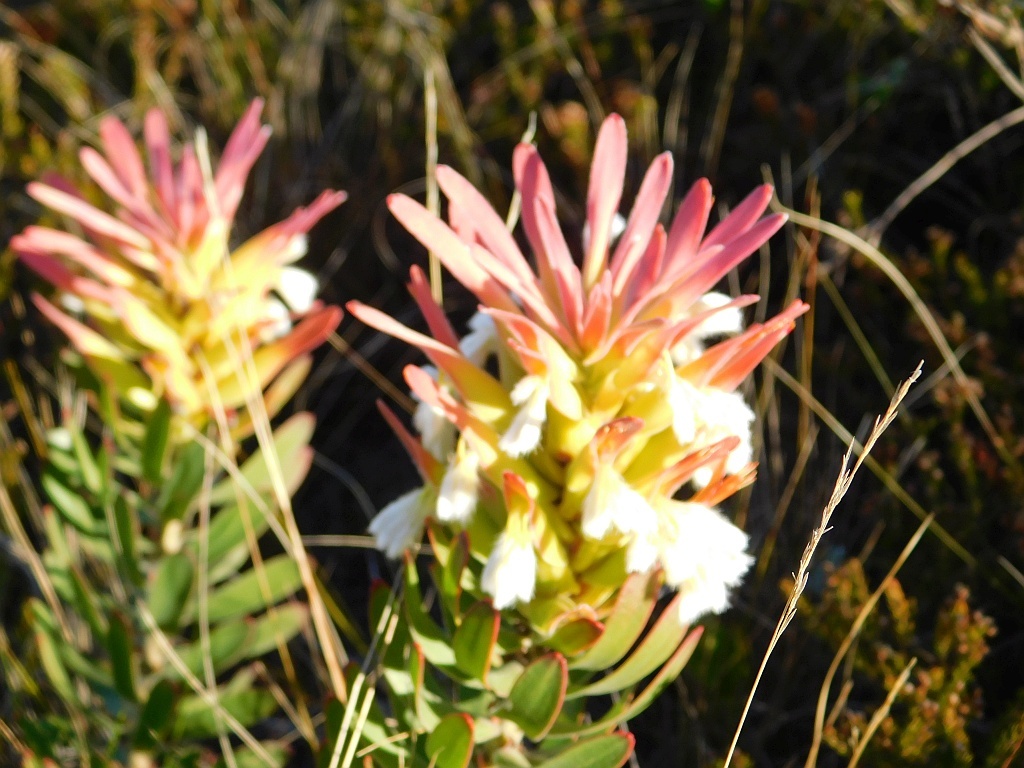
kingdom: Plantae
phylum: Tracheophyta
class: Magnoliopsida
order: Proteales
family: Proteaceae
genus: Mimetes
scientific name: Mimetes cucullatus
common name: Common pagoda
